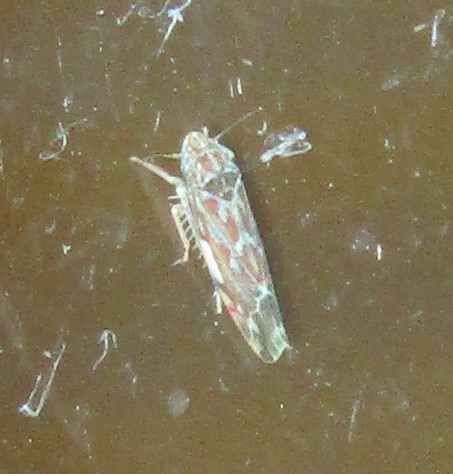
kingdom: Animalia
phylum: Arthropoda
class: Insecta
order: Hemiptera
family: Cicadellidae
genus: Erasmoneura
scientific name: Erasmoneura vulnerata
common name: The wounded leafhopper
